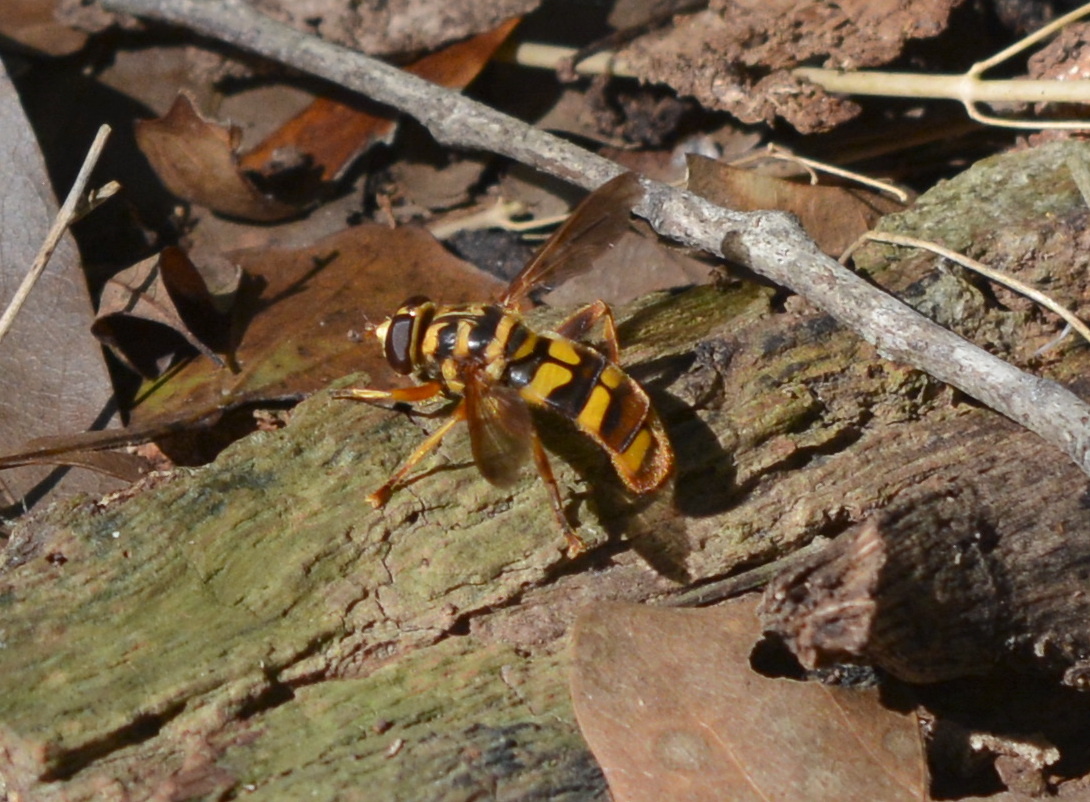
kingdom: Animalia
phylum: Arthropoda
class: Insecta
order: Diptera
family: Syrphidae
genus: Milesia
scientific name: Milesia virginiensis
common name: Virginia giant
